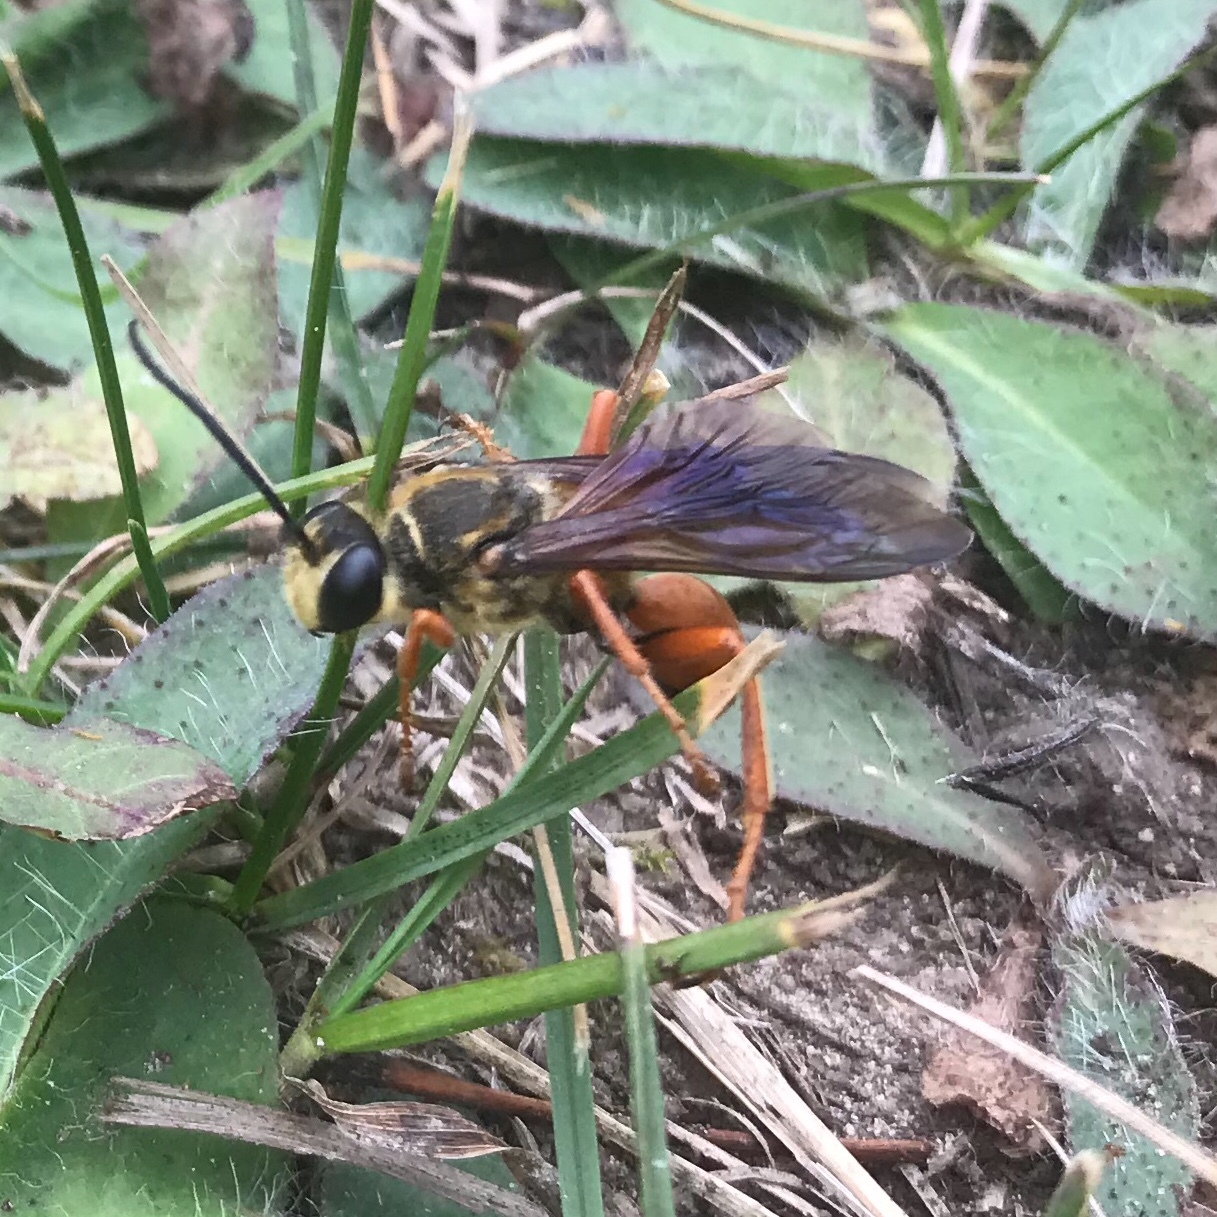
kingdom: Animalia
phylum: Arthropoda
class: Insecta
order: Hymenoptera
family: Sphecidae
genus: Sphex
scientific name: Sphex ichneumoneus
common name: Great golden digger wasp
